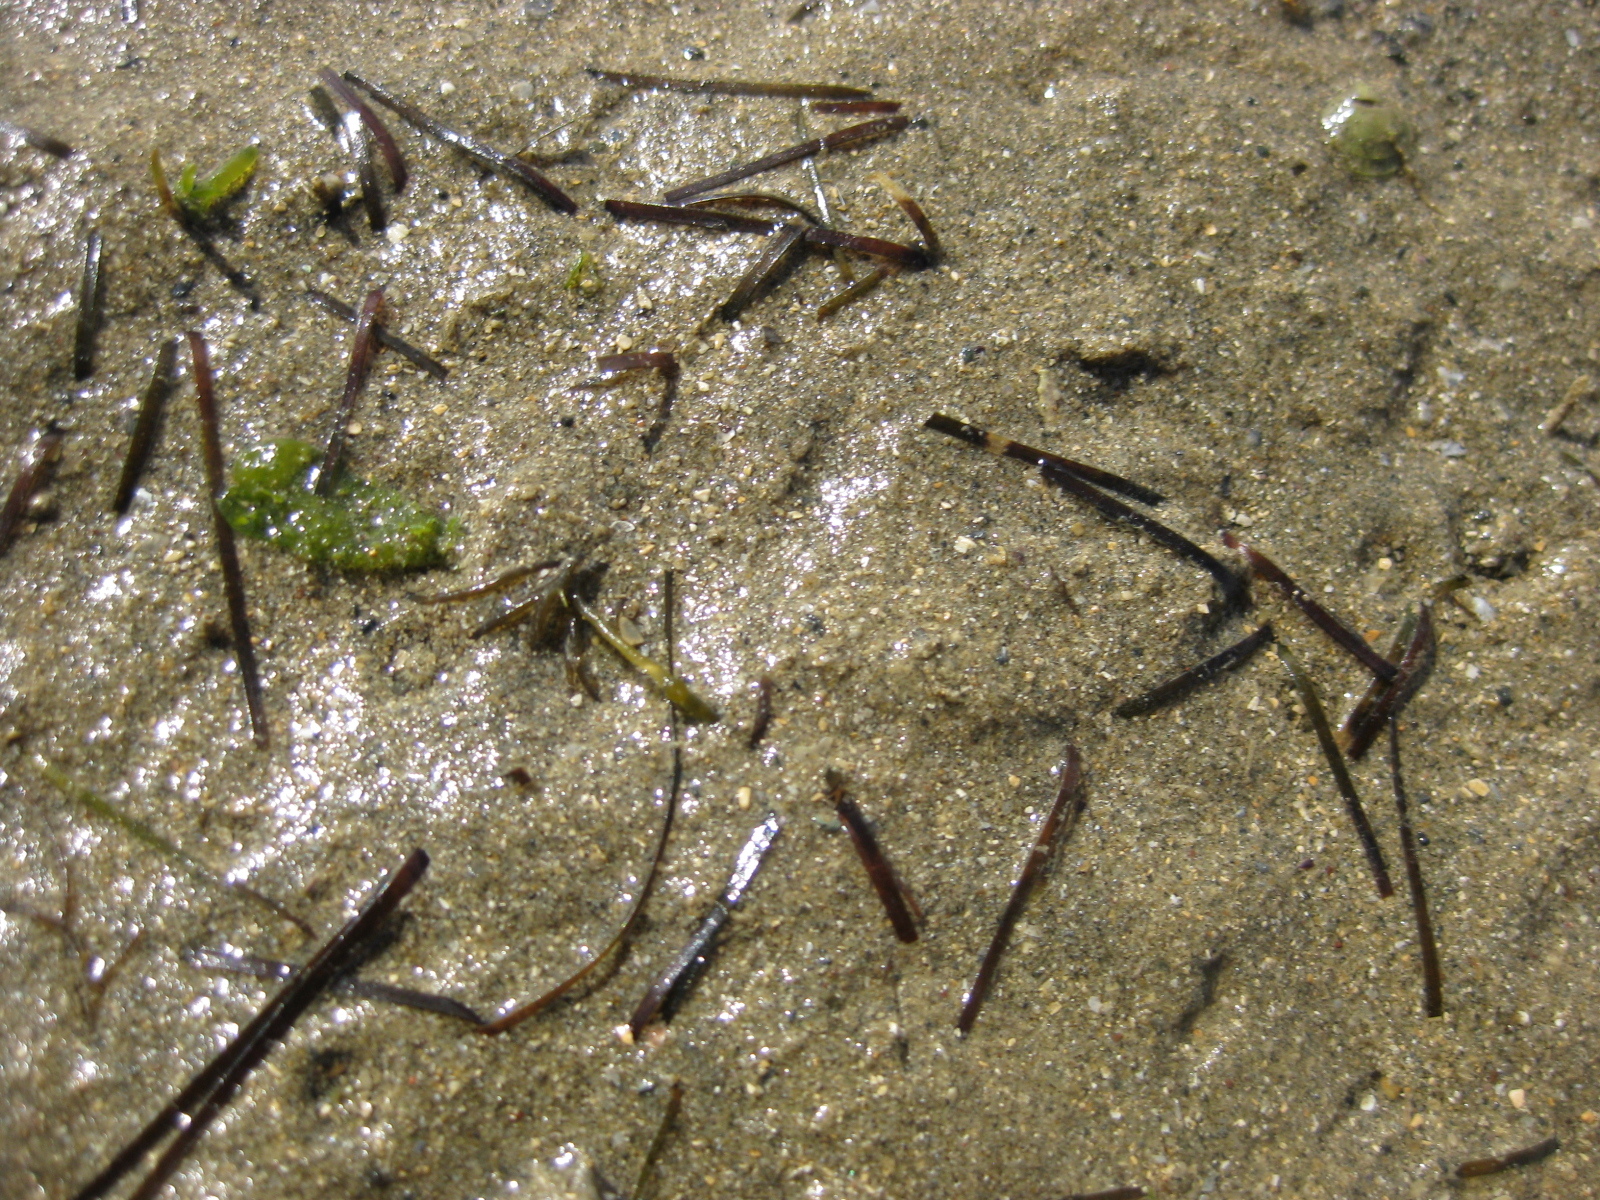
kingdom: Plantae
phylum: Tracheophyta
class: Liliopsida
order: Alismatales
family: Zosteraceae
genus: Zostera
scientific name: Zostera novazelandica
